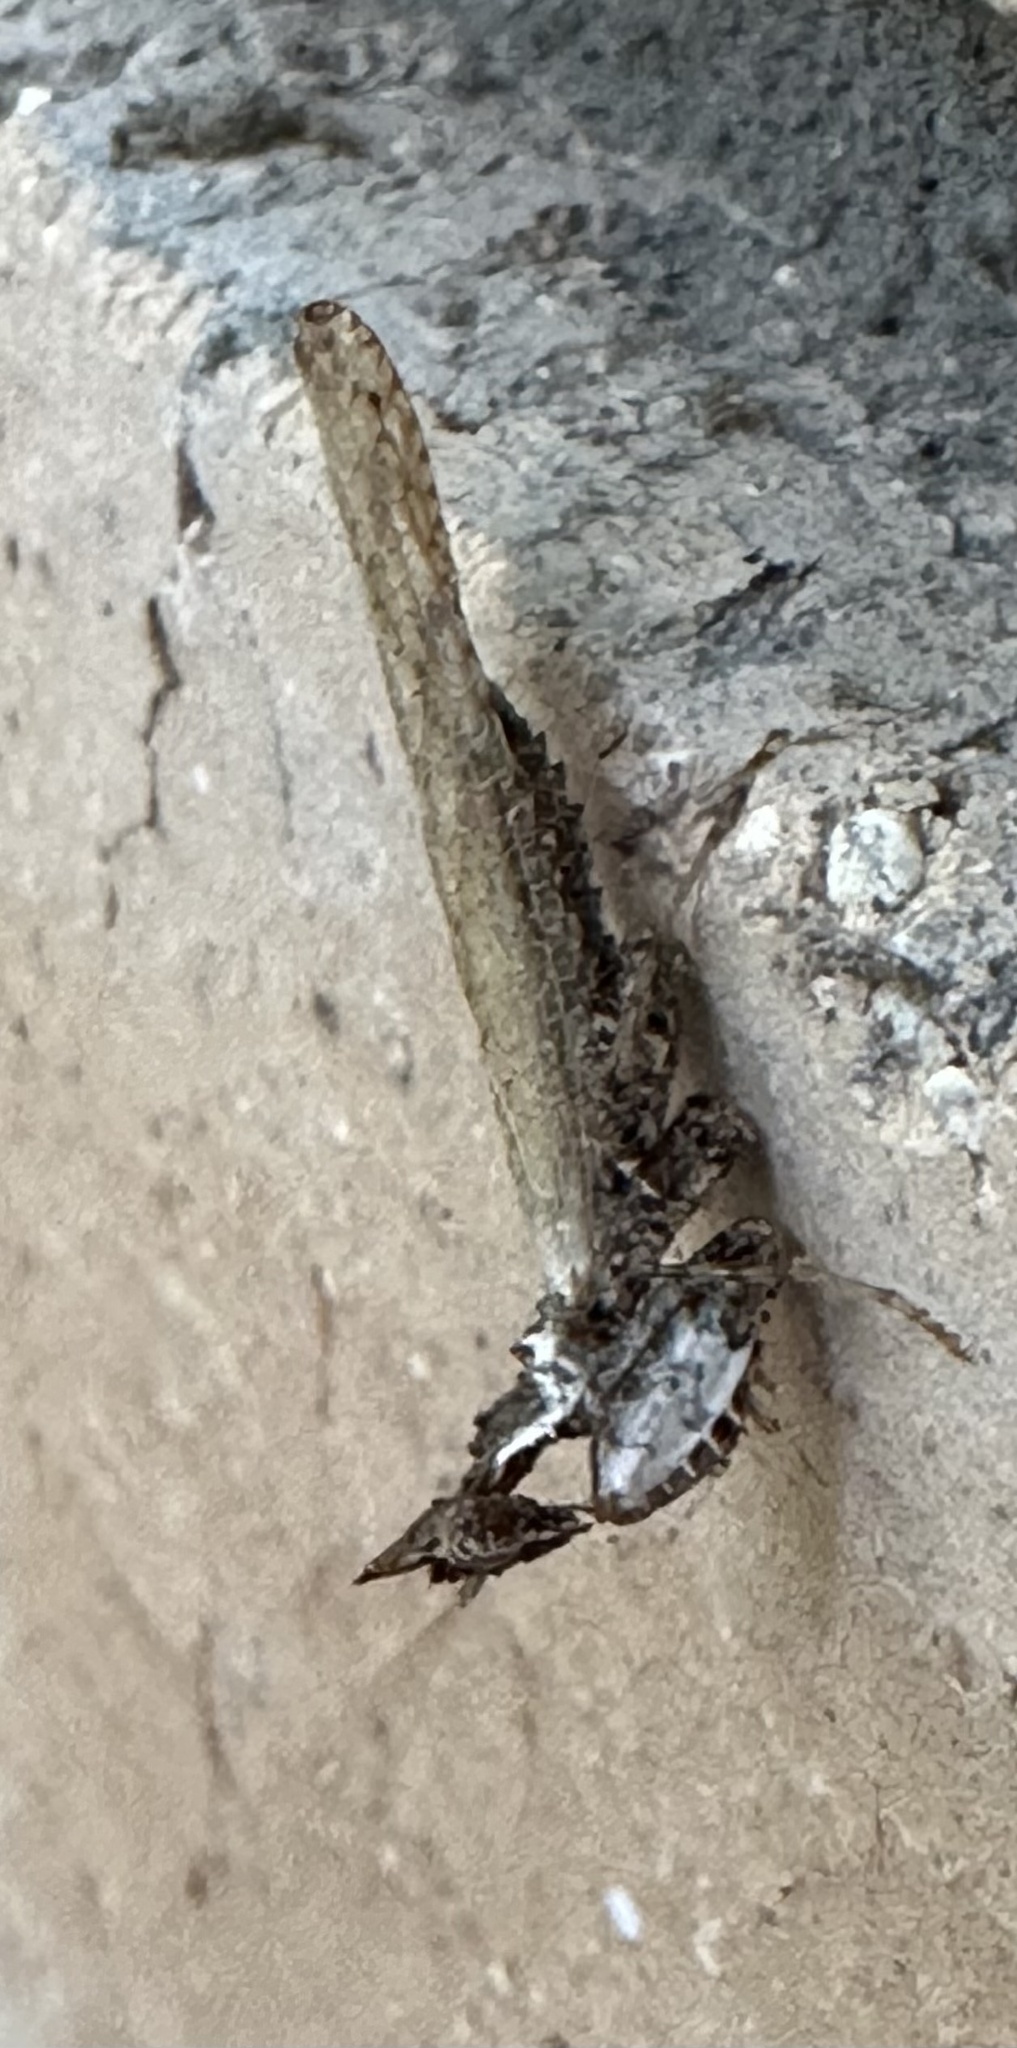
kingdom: Animalia
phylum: Arthropoda
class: Insecta
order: Mantodea
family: Hymenopodidae
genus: Oxypilus
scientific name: Oxypilus capensis
